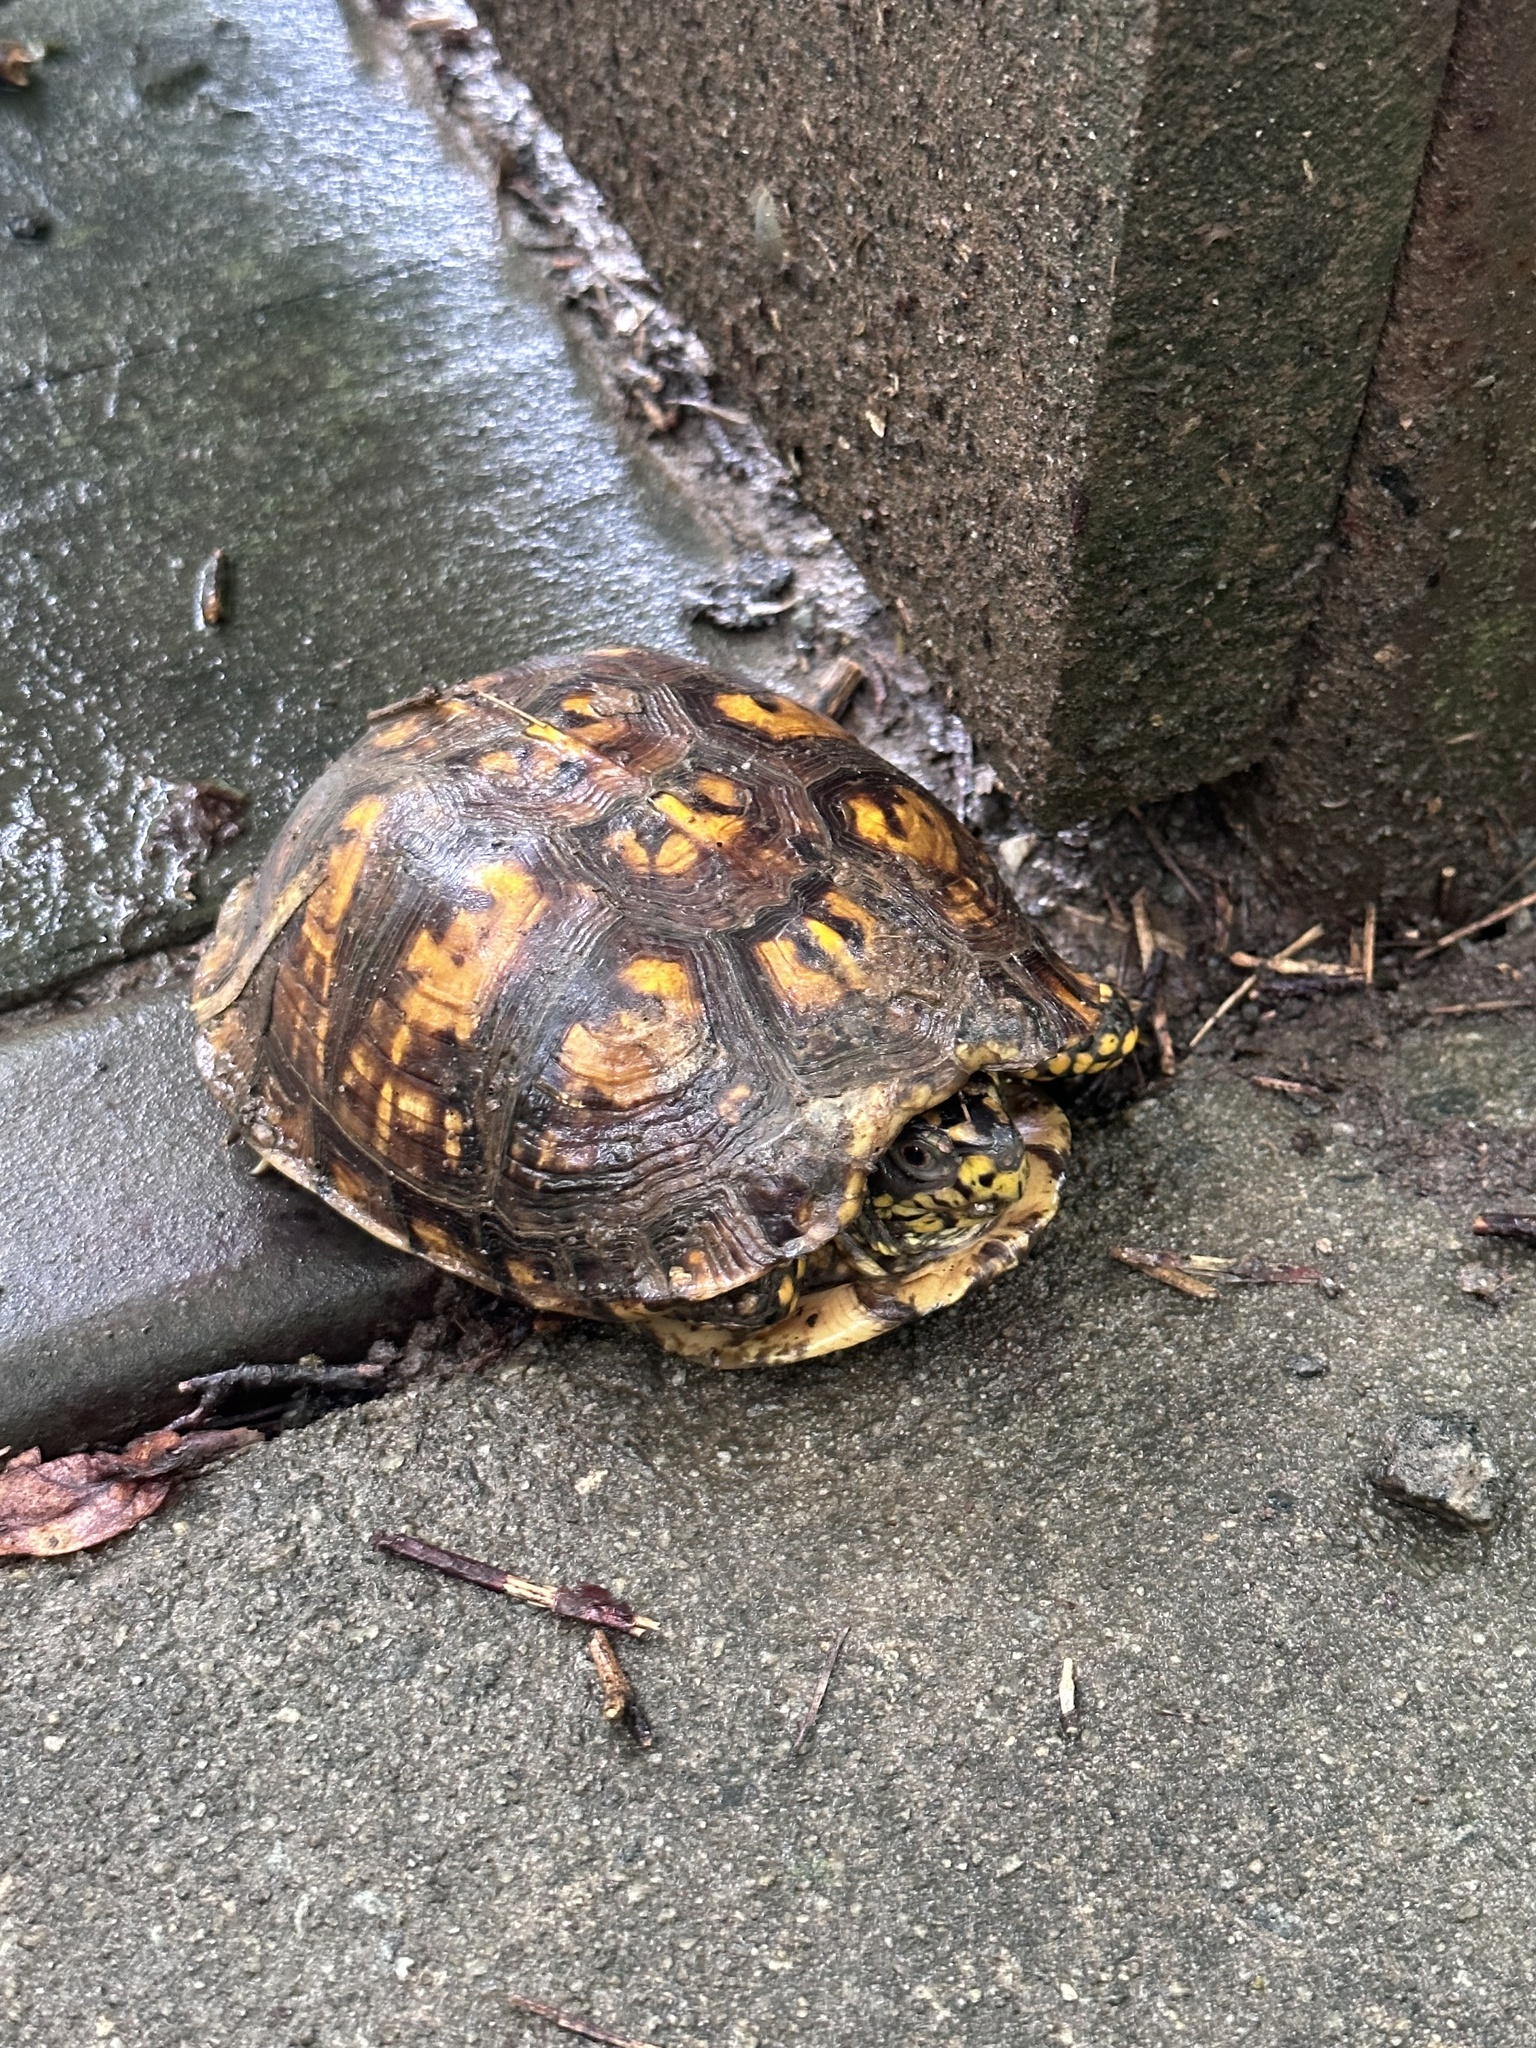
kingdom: Animalia
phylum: Chordata
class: Testudines
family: Emydidae
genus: Terrapene
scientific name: Terrapene carolina
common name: Common box turtle
